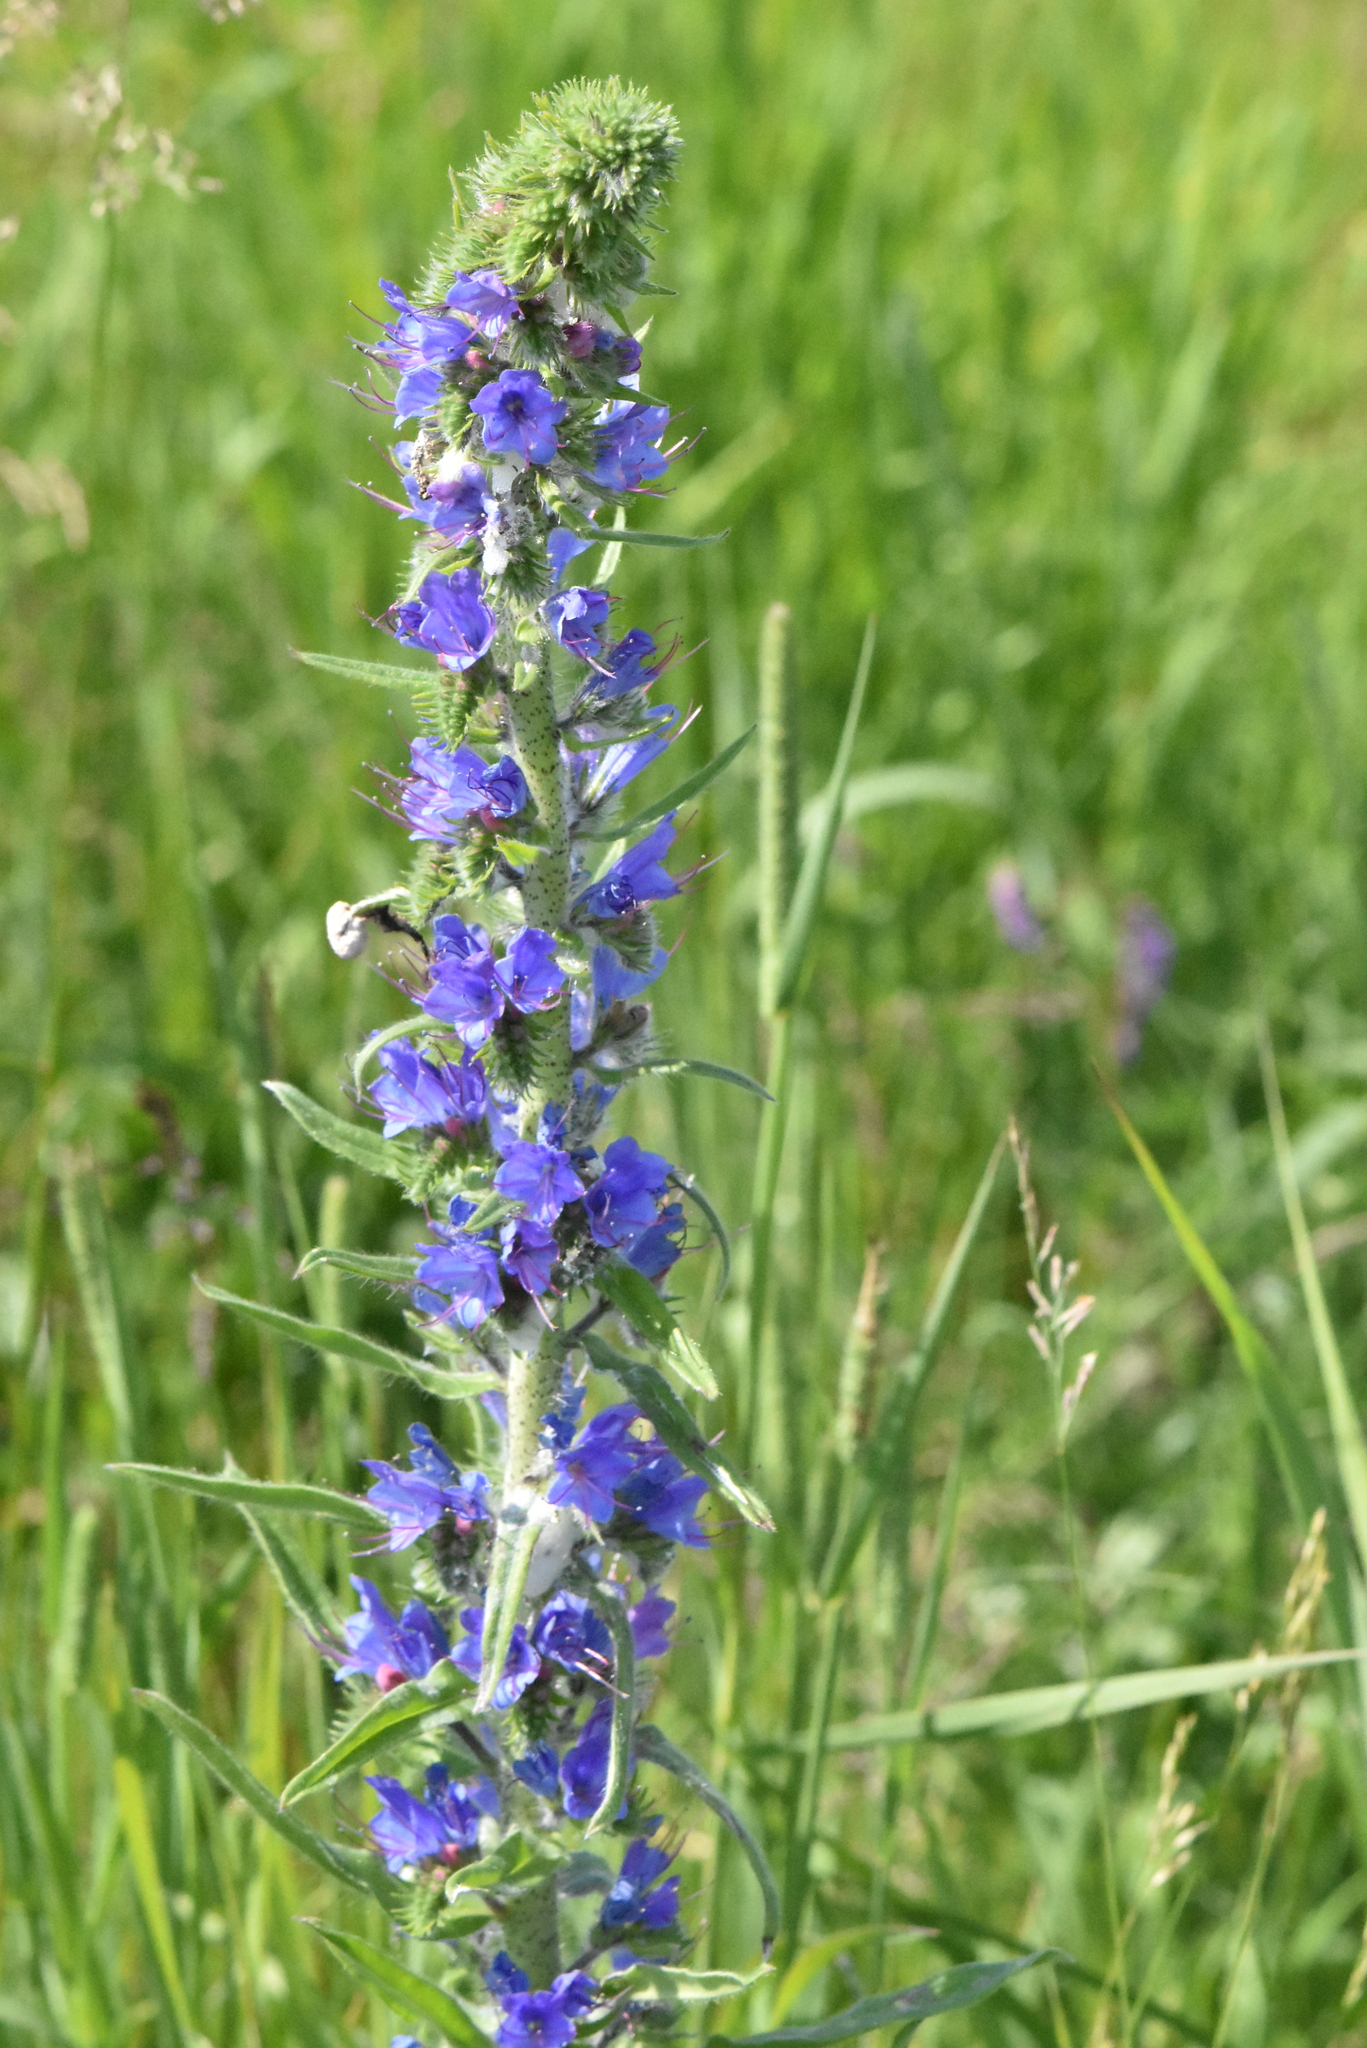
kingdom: Plantae
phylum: Tracheophyta
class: Magnoliopsida
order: Boraginales
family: Boraginaceae
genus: Echium
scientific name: Echium vulgare
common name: Common viper's bugloss
